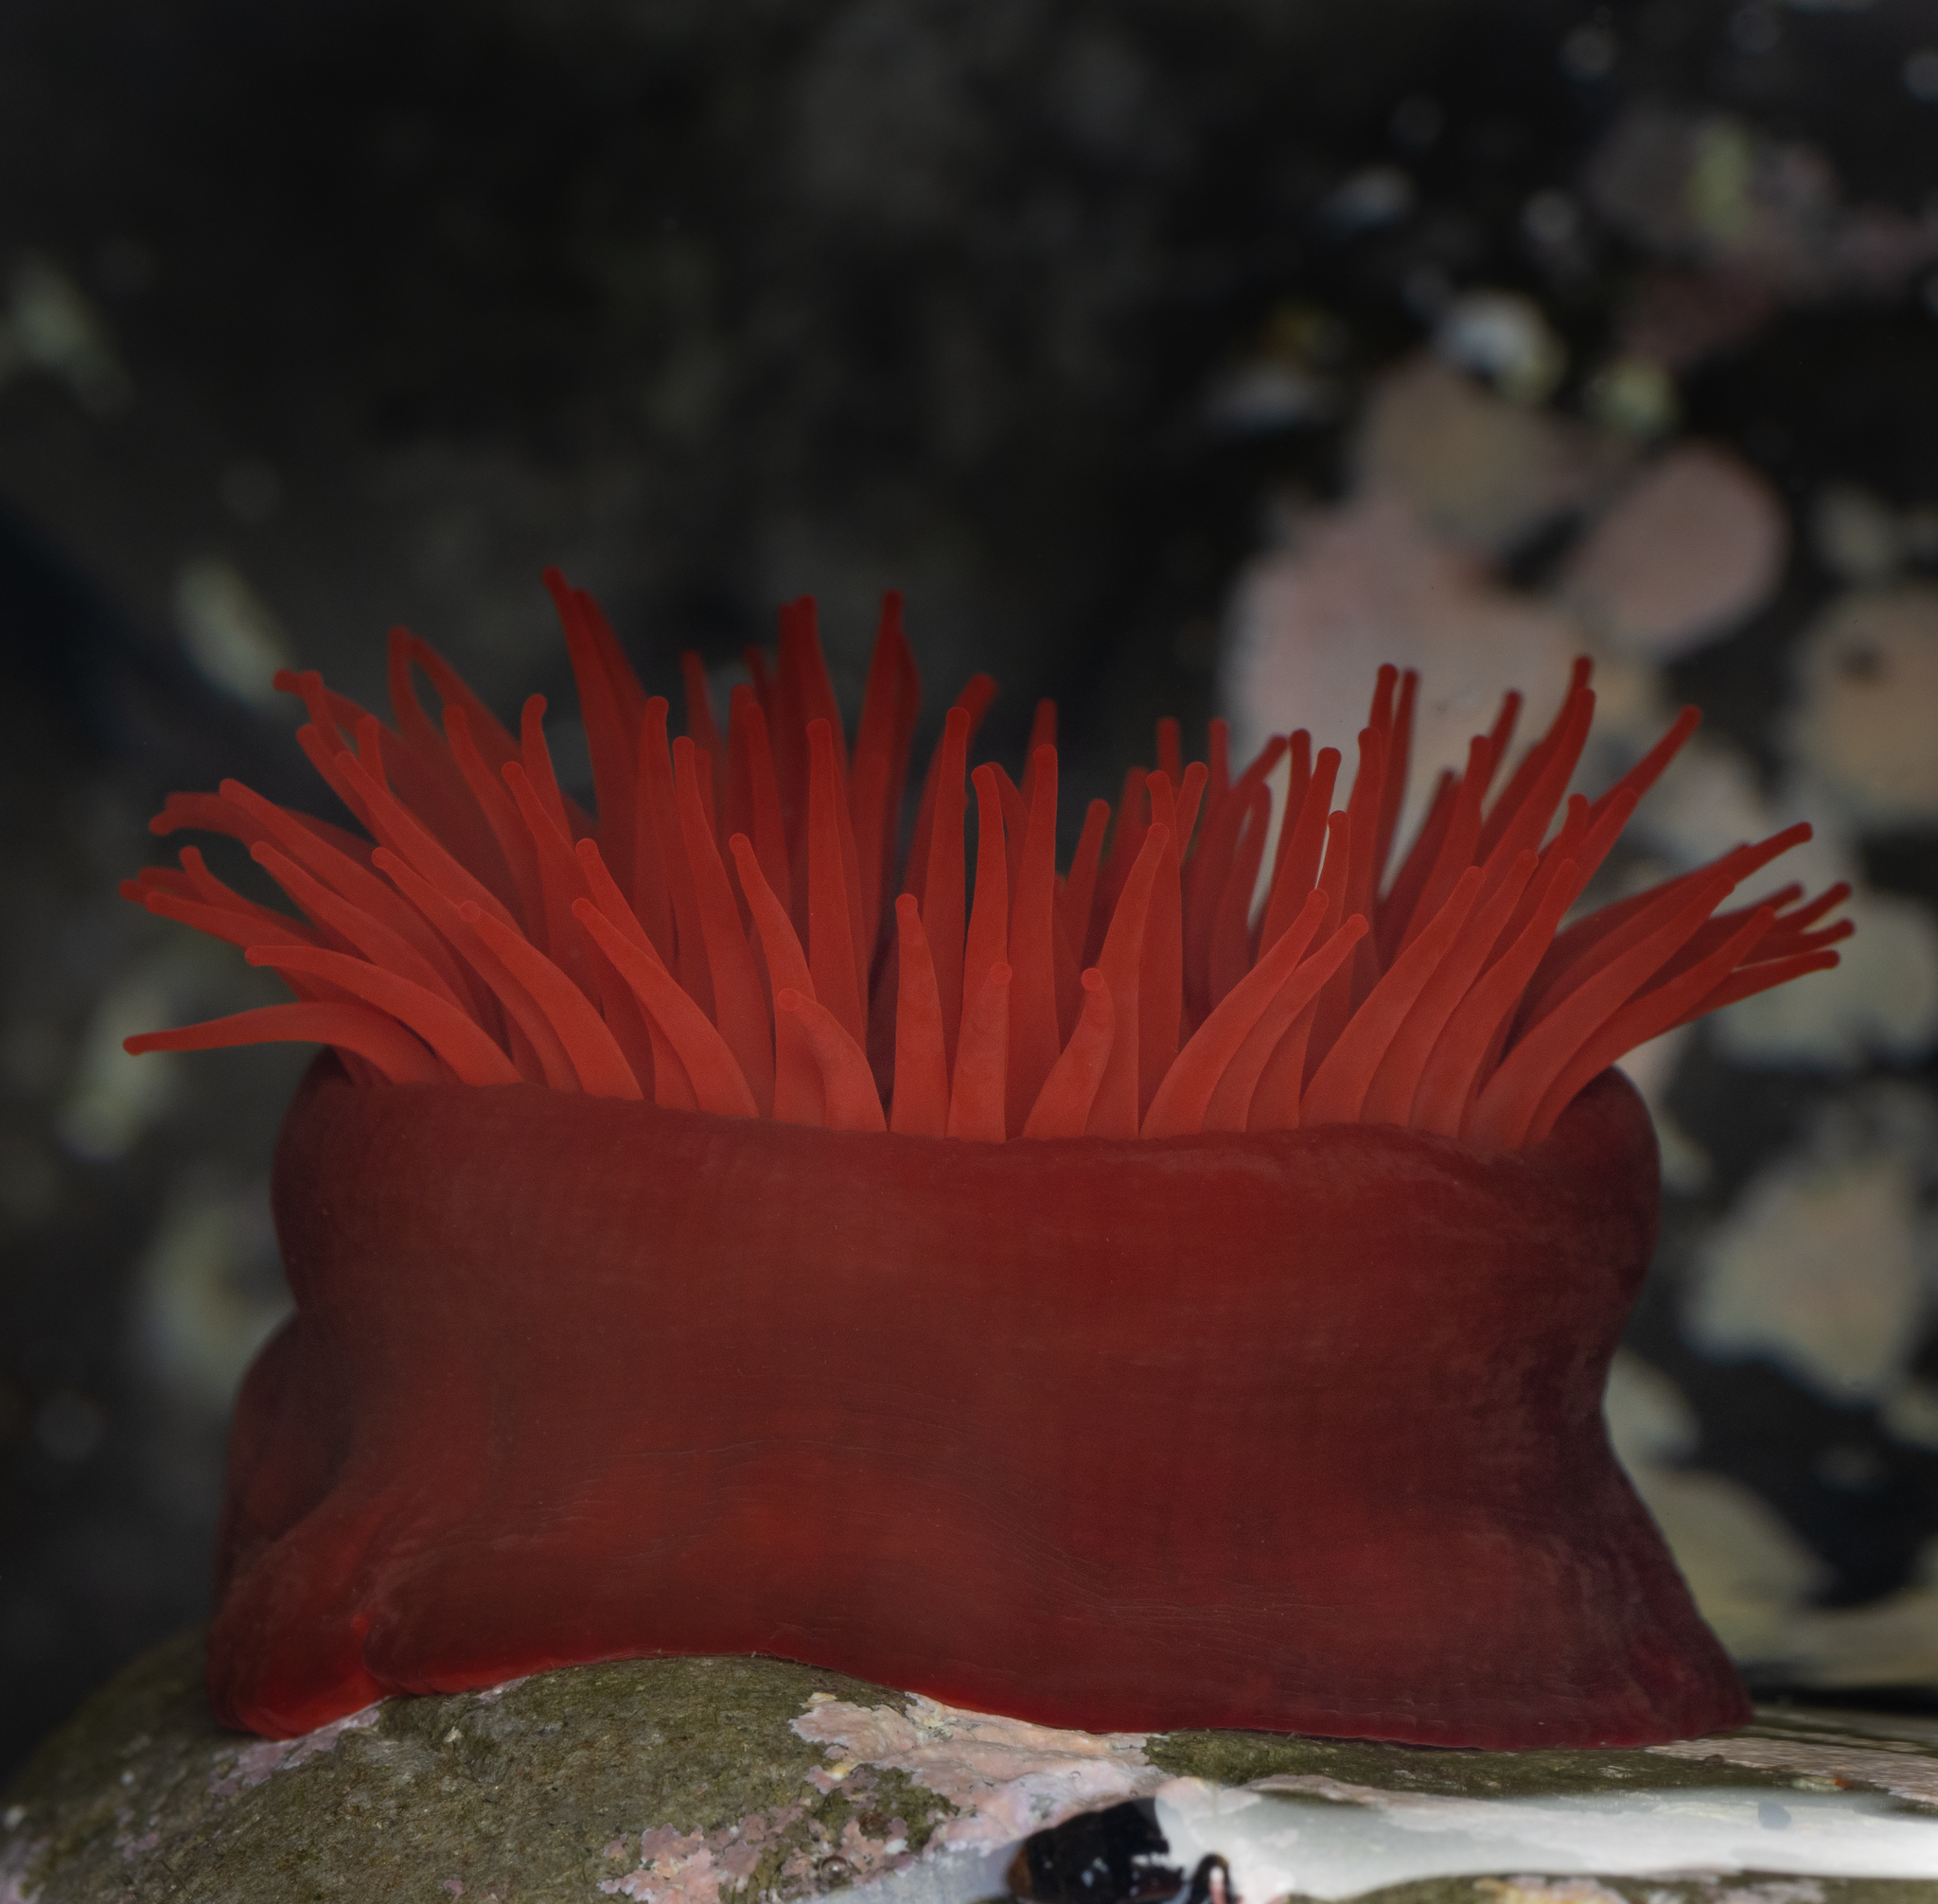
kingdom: Animalia
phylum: Cnidaria
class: Anthozoa
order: Actiniaria
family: Actiniidae
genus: Actinia
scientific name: Actinia tenebrosa
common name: Waratah anemone
